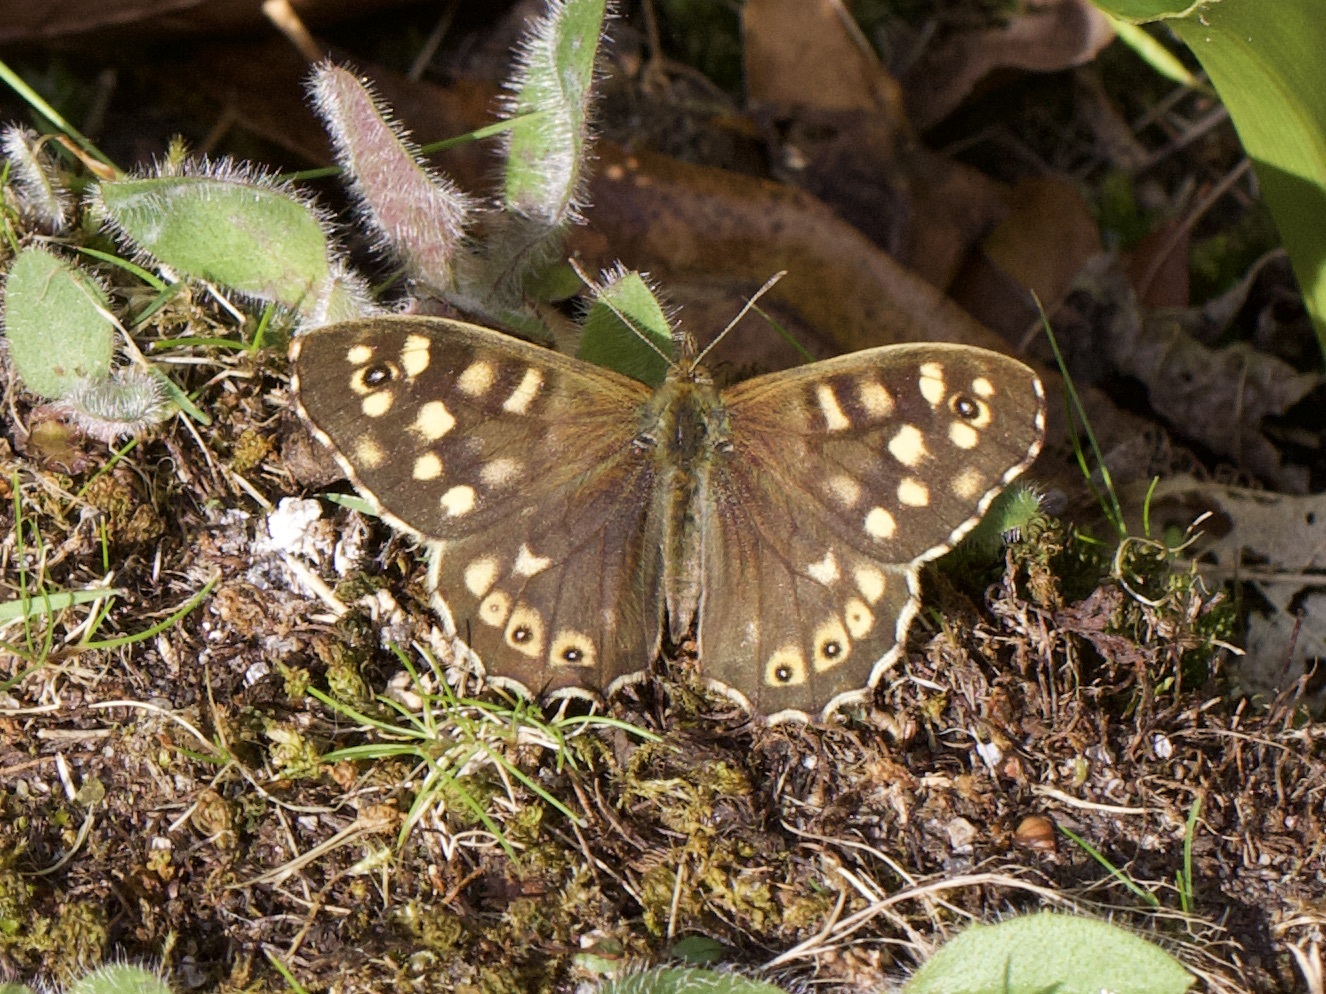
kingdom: Animalia
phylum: Arthropoda
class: Insecta
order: Lepidoptera
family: Nymphalidae
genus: Pararge
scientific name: Pararge aegeria
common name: Speckled wood
